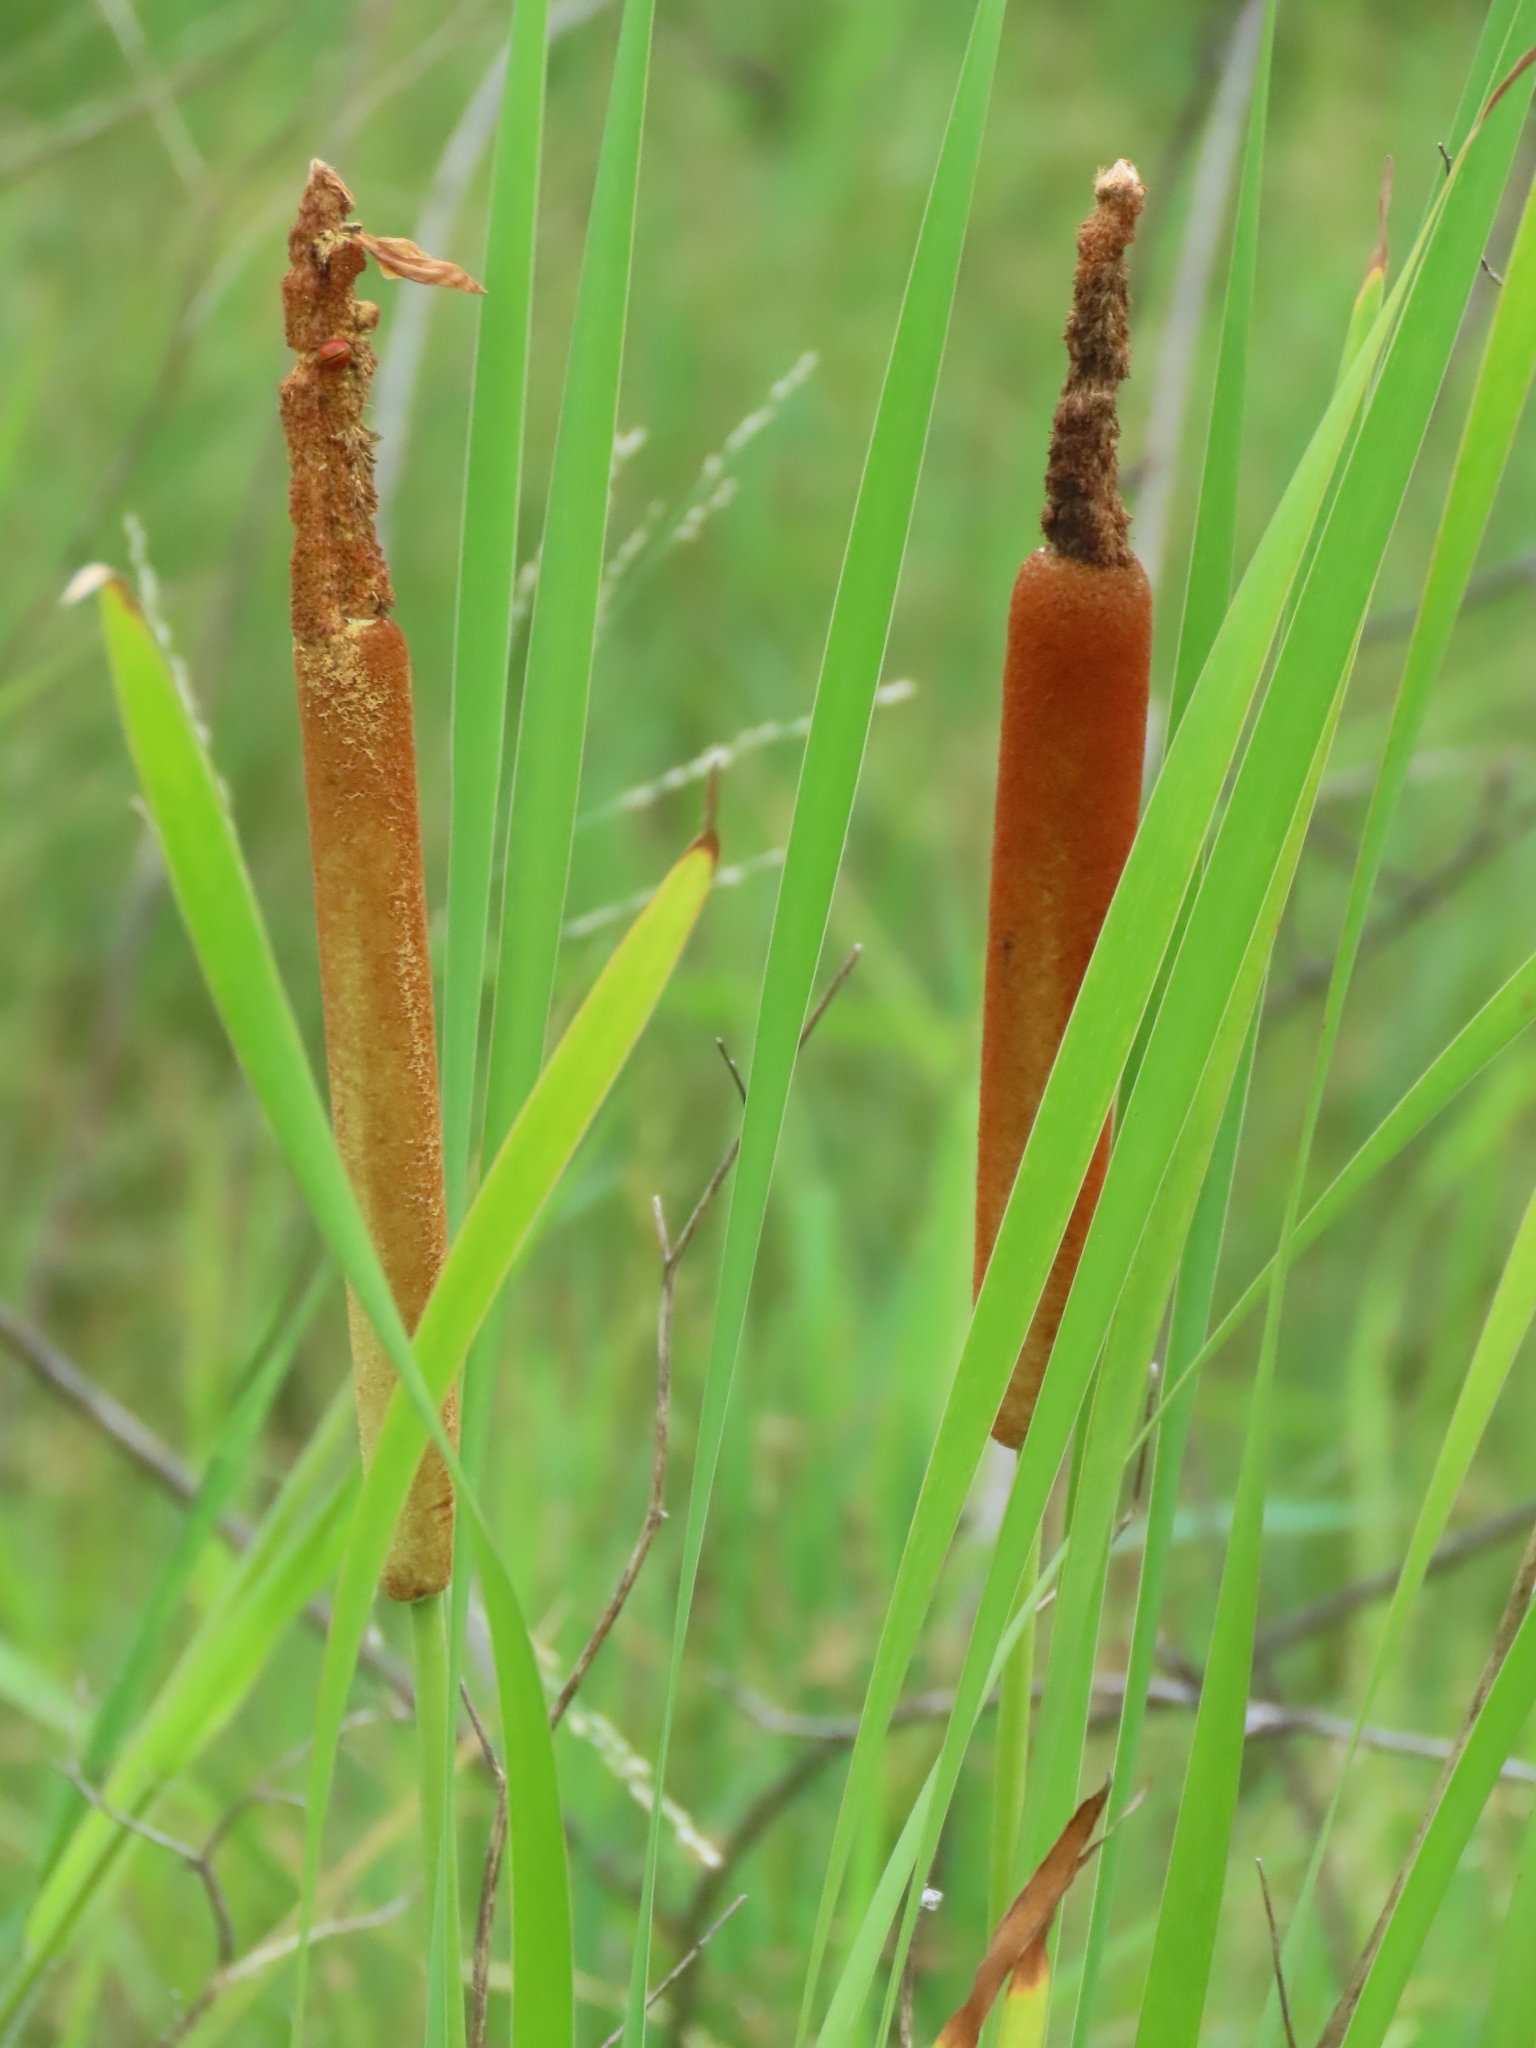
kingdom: Plantae
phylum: Tracheophyta
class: Liliopsida
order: Poales
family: Typhaceae
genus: Typha
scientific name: Typha orientalis
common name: Bullrush
